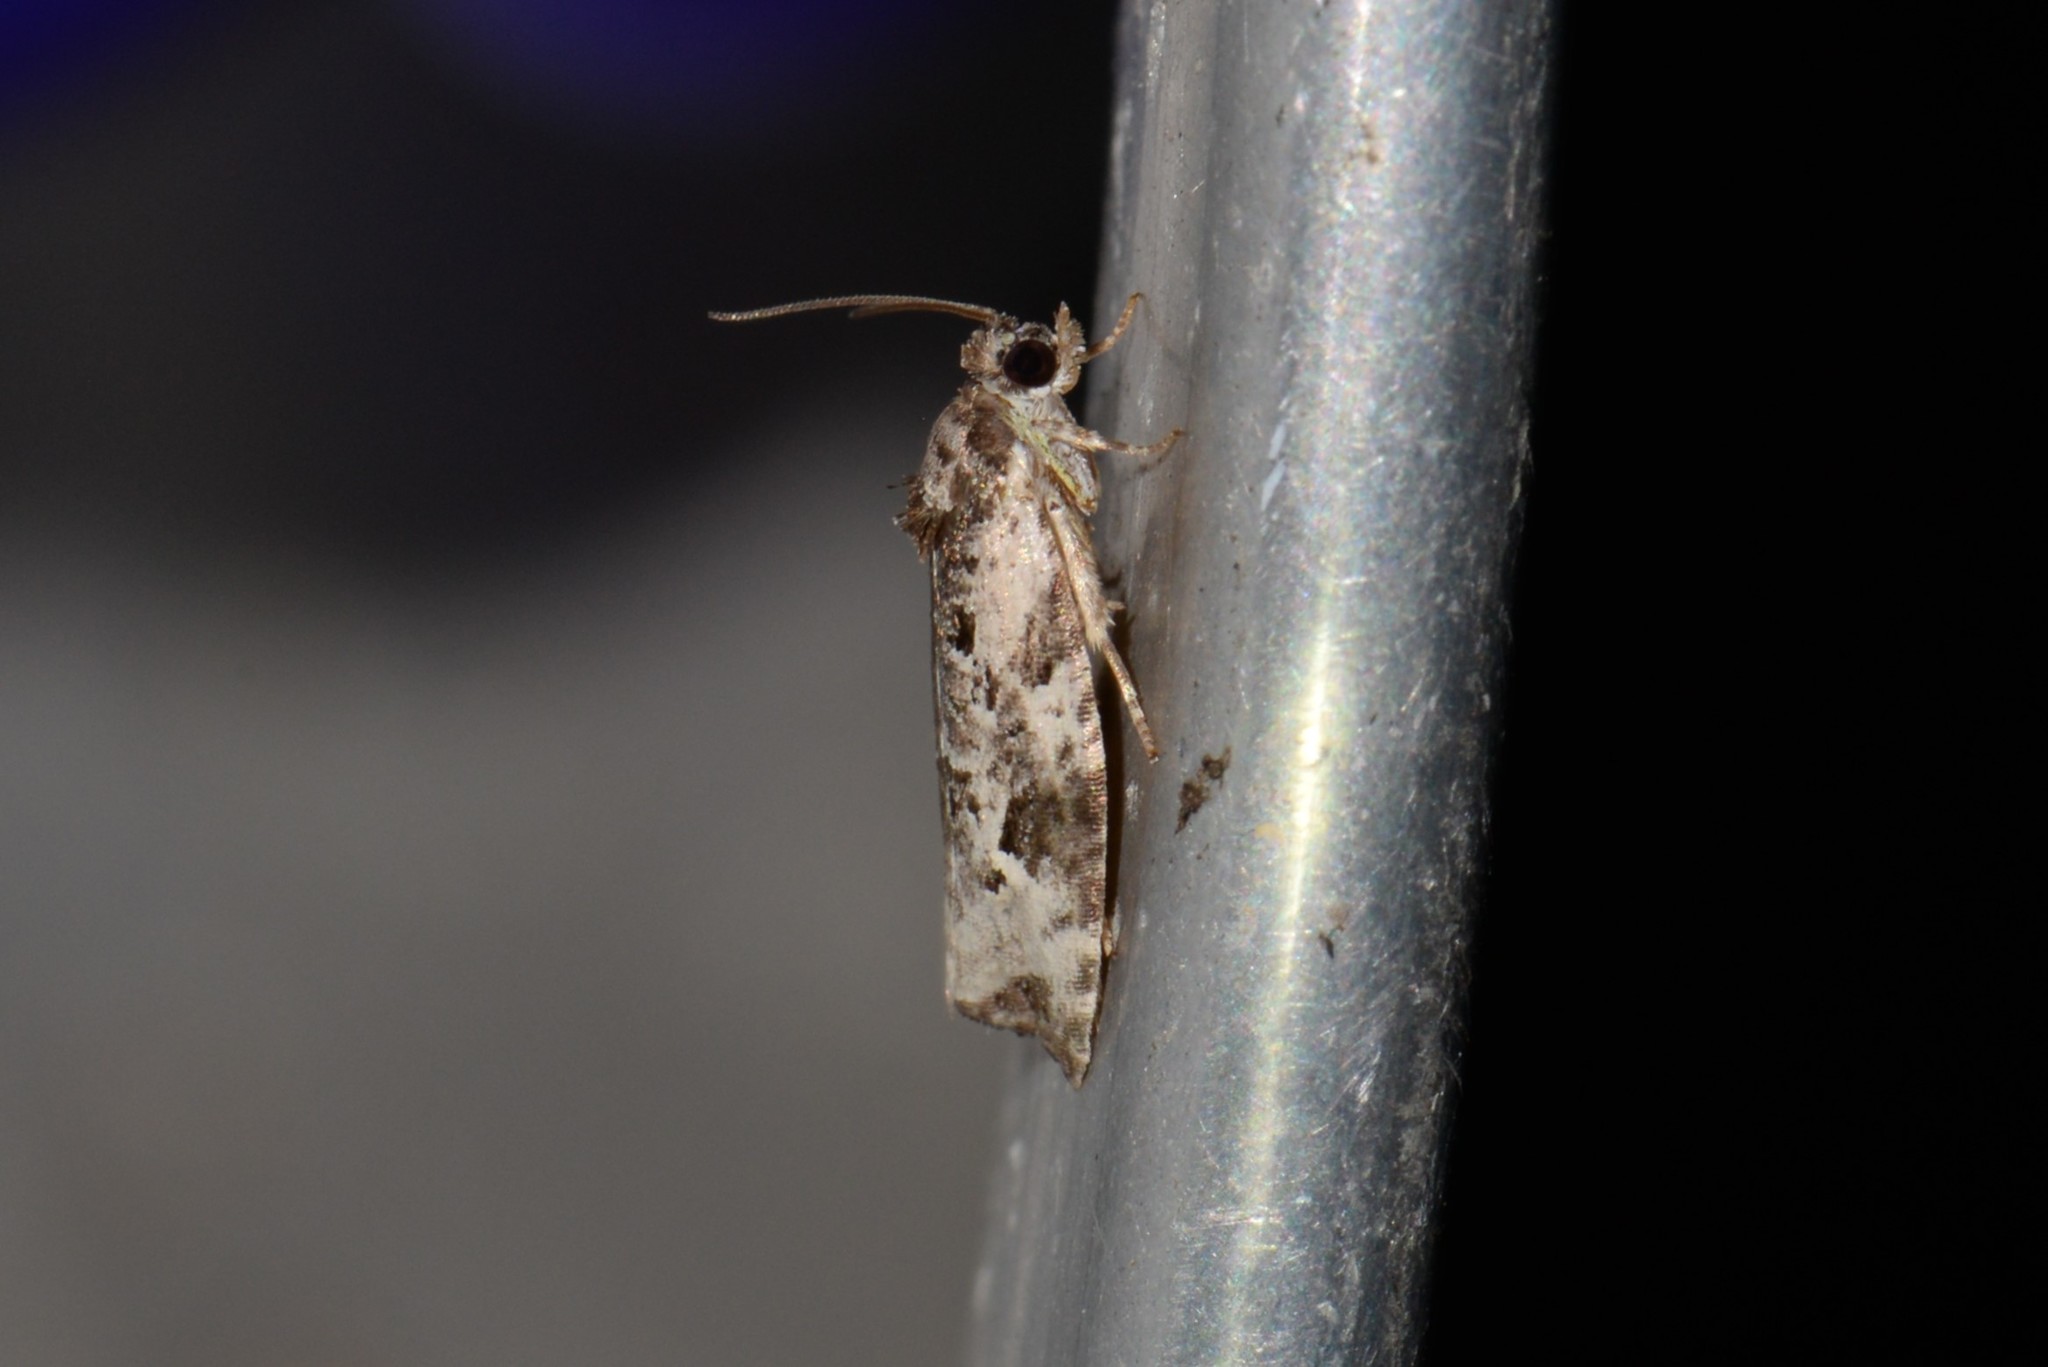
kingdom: Animalia
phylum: Arthropoda
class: Insecta
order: Lepidoptera
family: Tortricidae
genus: Apotomis
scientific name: Apotomis albeolana
